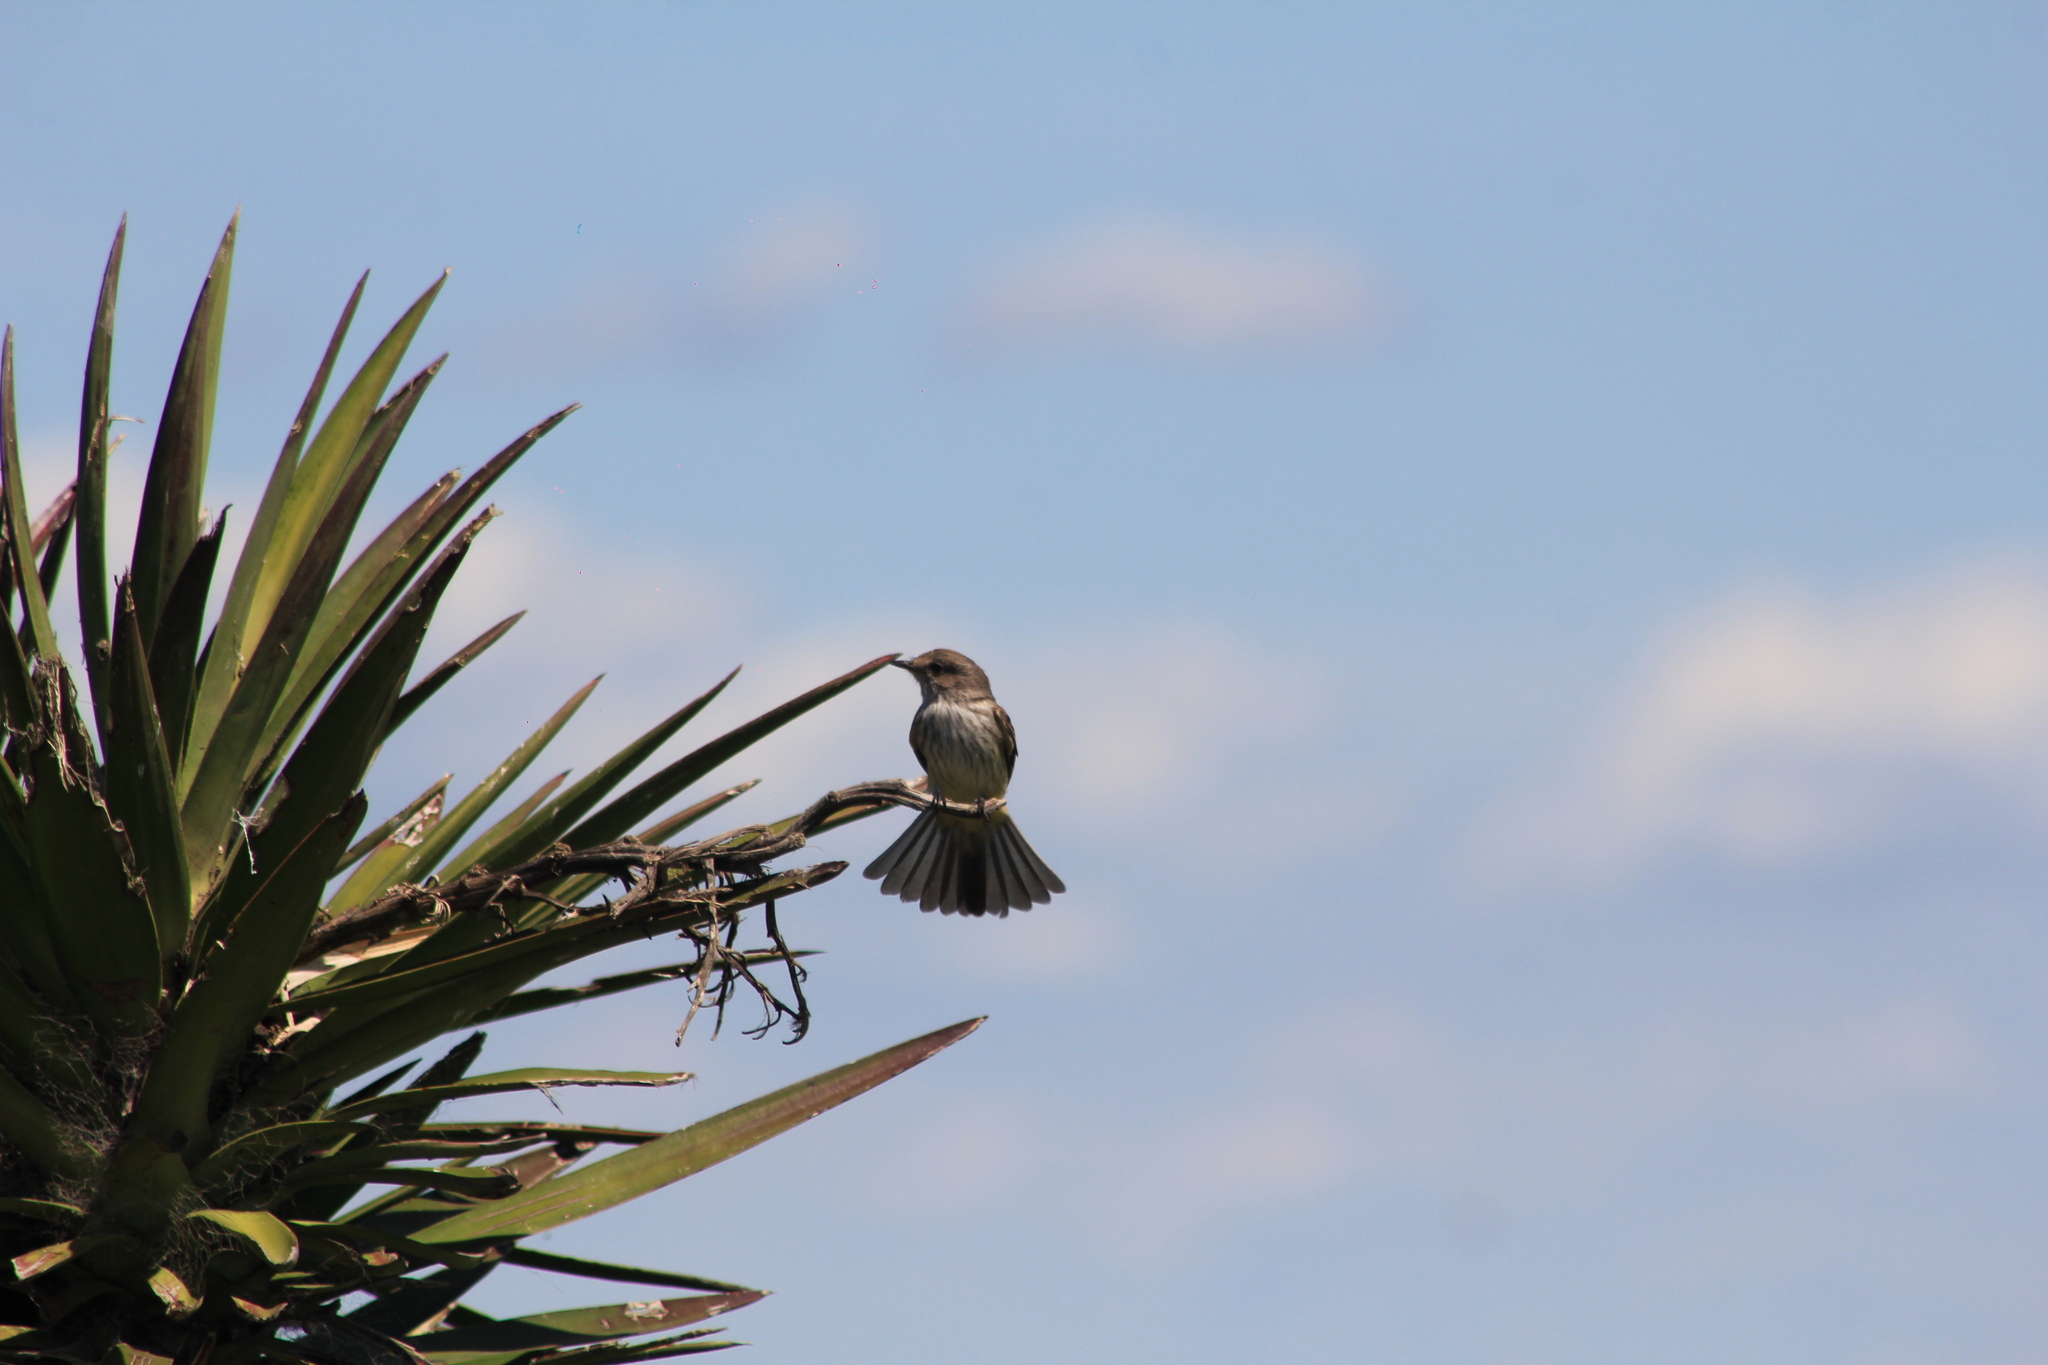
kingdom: Animalia
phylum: Chordata
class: Aves
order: Passeriformes
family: Tyrannidae
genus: Pyrocephalus
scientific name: Pyrocephalus rubinus
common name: Vermilion flycatcher
